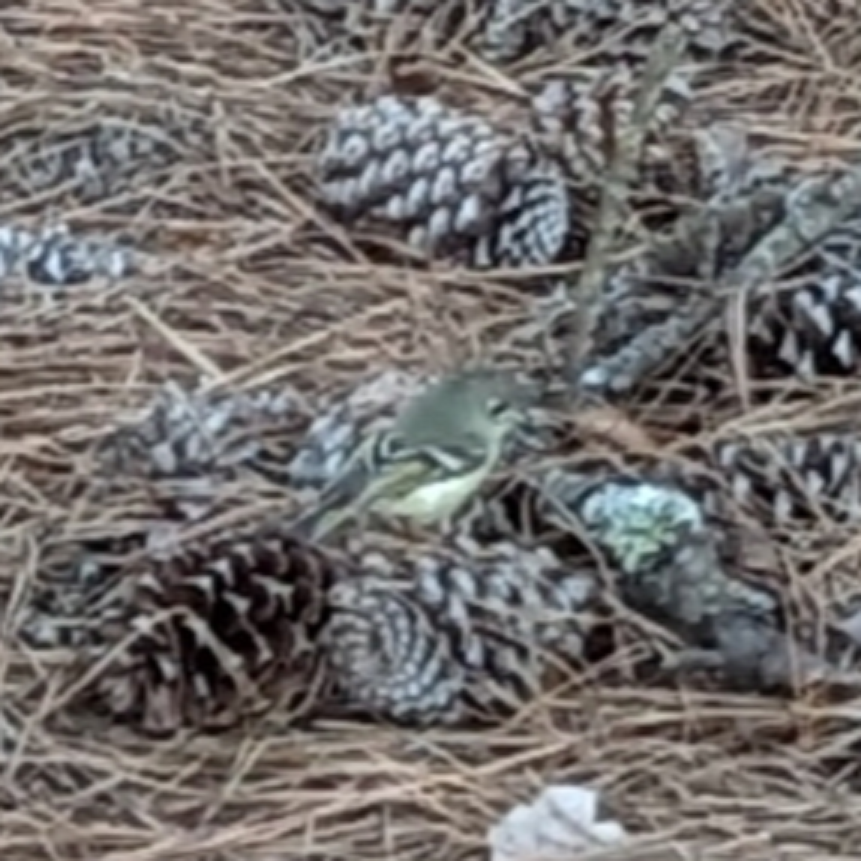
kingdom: Animalia
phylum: Chordata
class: Aves
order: Passeriformes
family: Regulidae
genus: Regulus
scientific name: Regulus calendula
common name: Ruby-crowned kinglet
